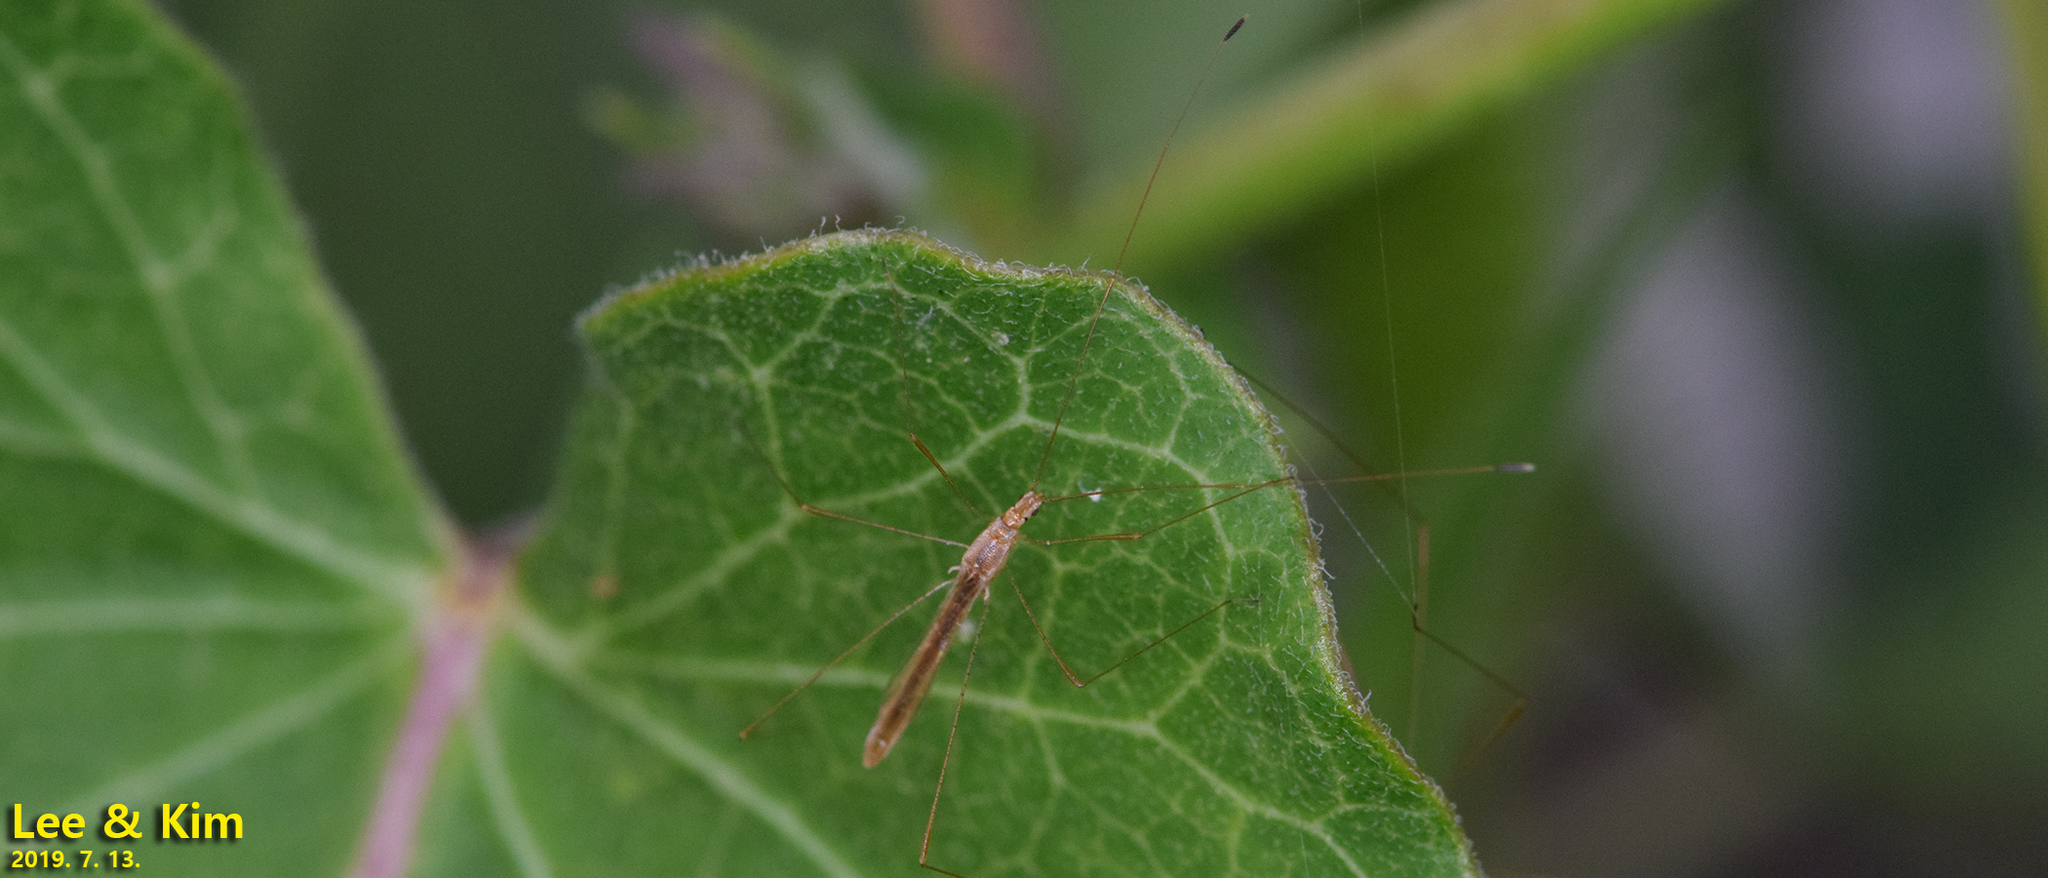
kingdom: Animalia
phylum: Arthropoda
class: Insecta
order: Hemiptera
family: Berytidae
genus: Yemma
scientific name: Yemma exilis
